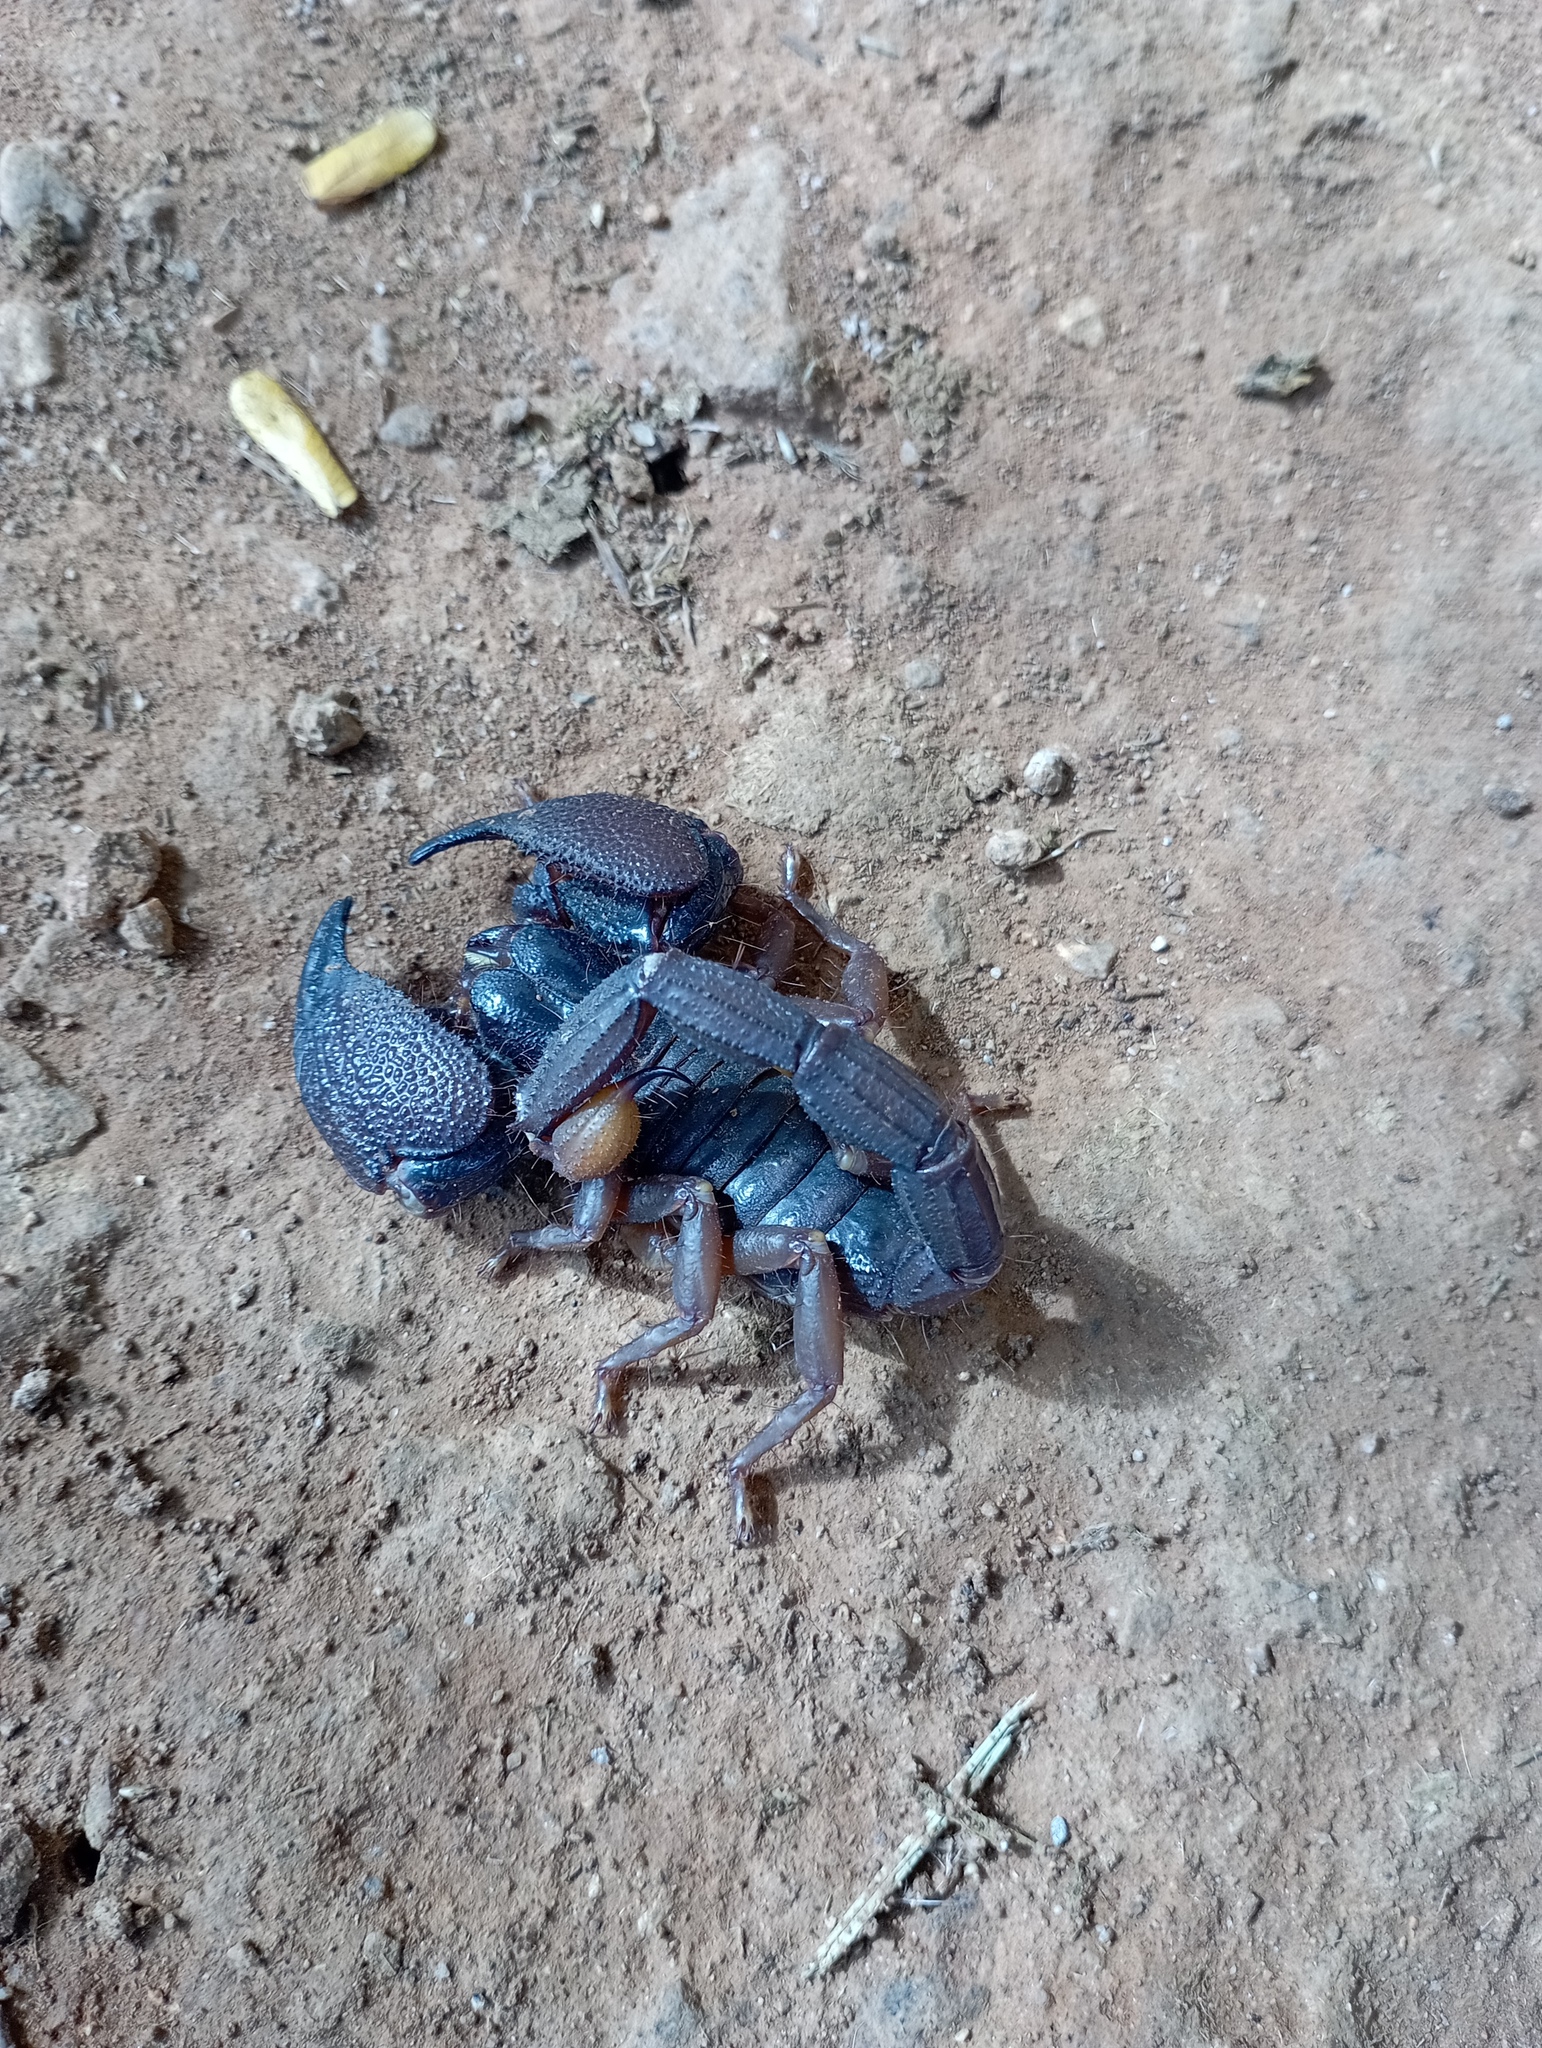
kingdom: Animalia
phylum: Arthropoda
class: Arachnida
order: Scorpiones
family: Scorpionidae
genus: Gigantometrus
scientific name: Gigantometrus swammerdami
